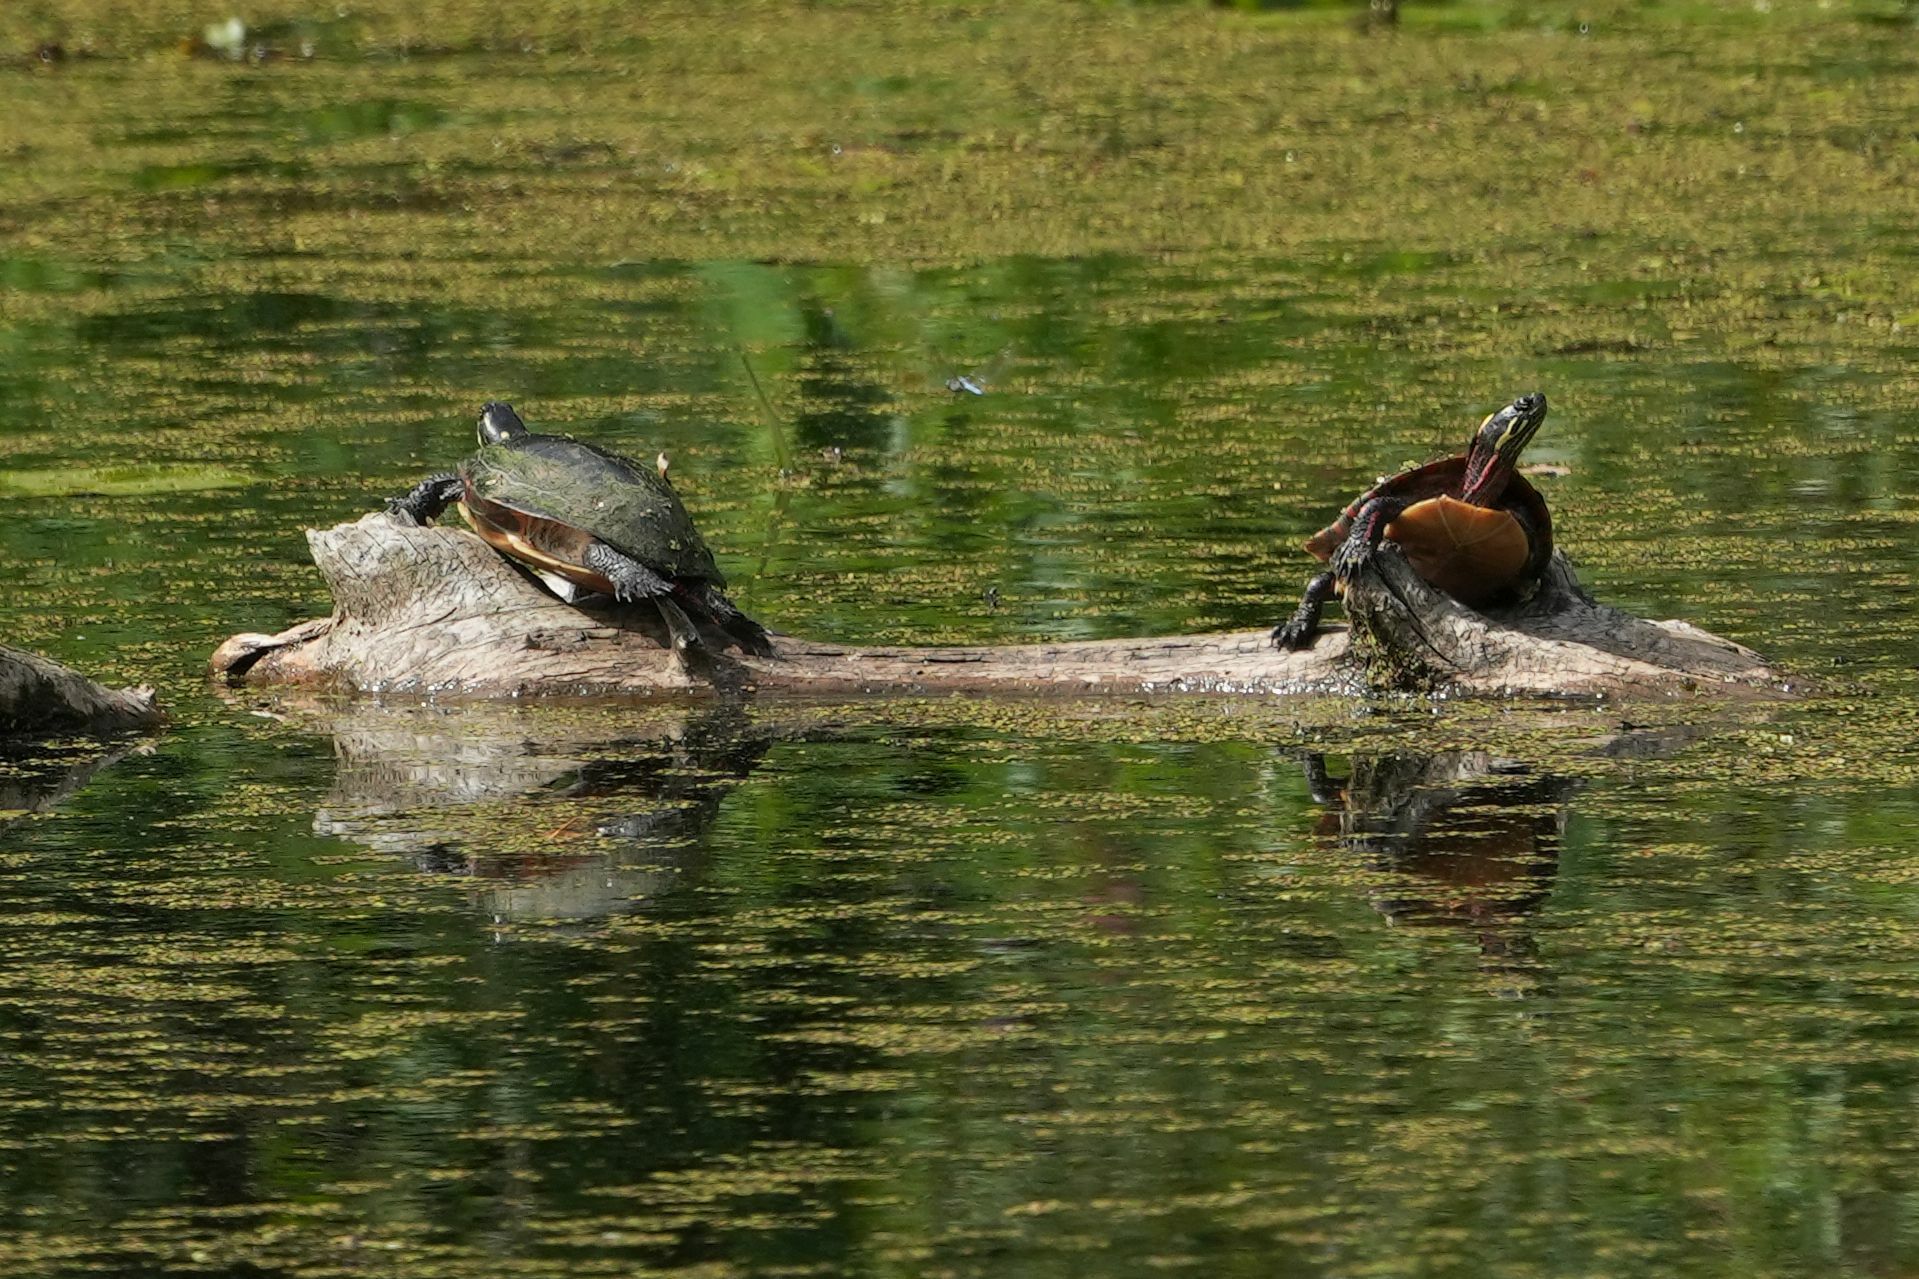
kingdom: Animalia
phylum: Chordata
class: Testudines
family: Emydidae
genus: Chrysemys
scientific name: Chrysemys picta
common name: Painted turtle
